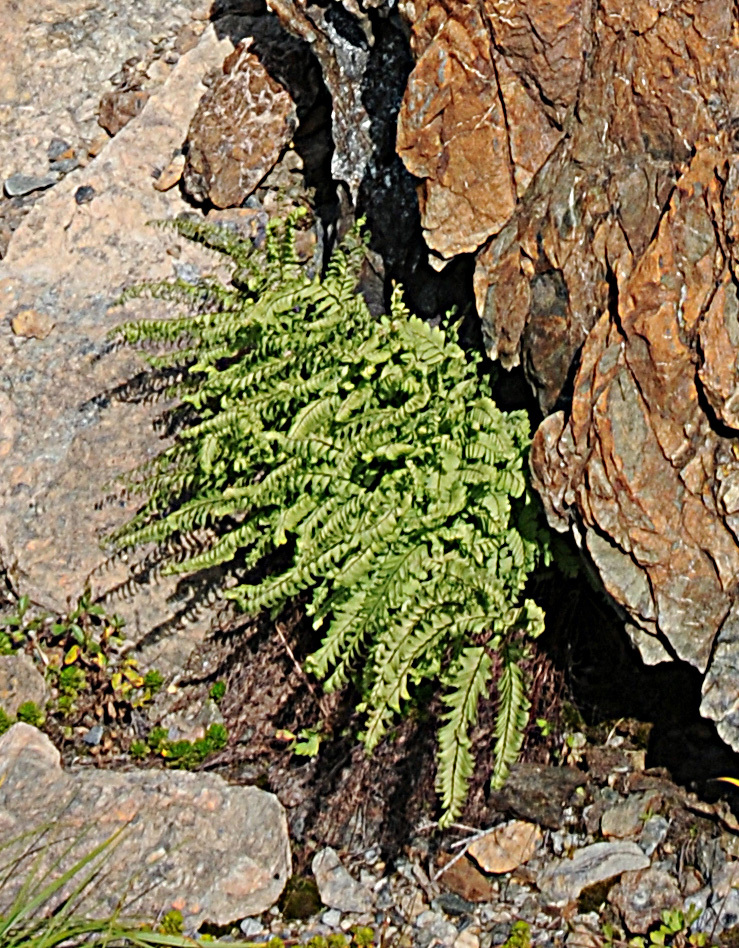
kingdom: Plantae
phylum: Tracheophyta
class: Polypodiopsida
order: Polypodiales
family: Pteridaceae
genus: Adiantum
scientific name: Adiantum aleuticum
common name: Aleutian maidenhair fern
